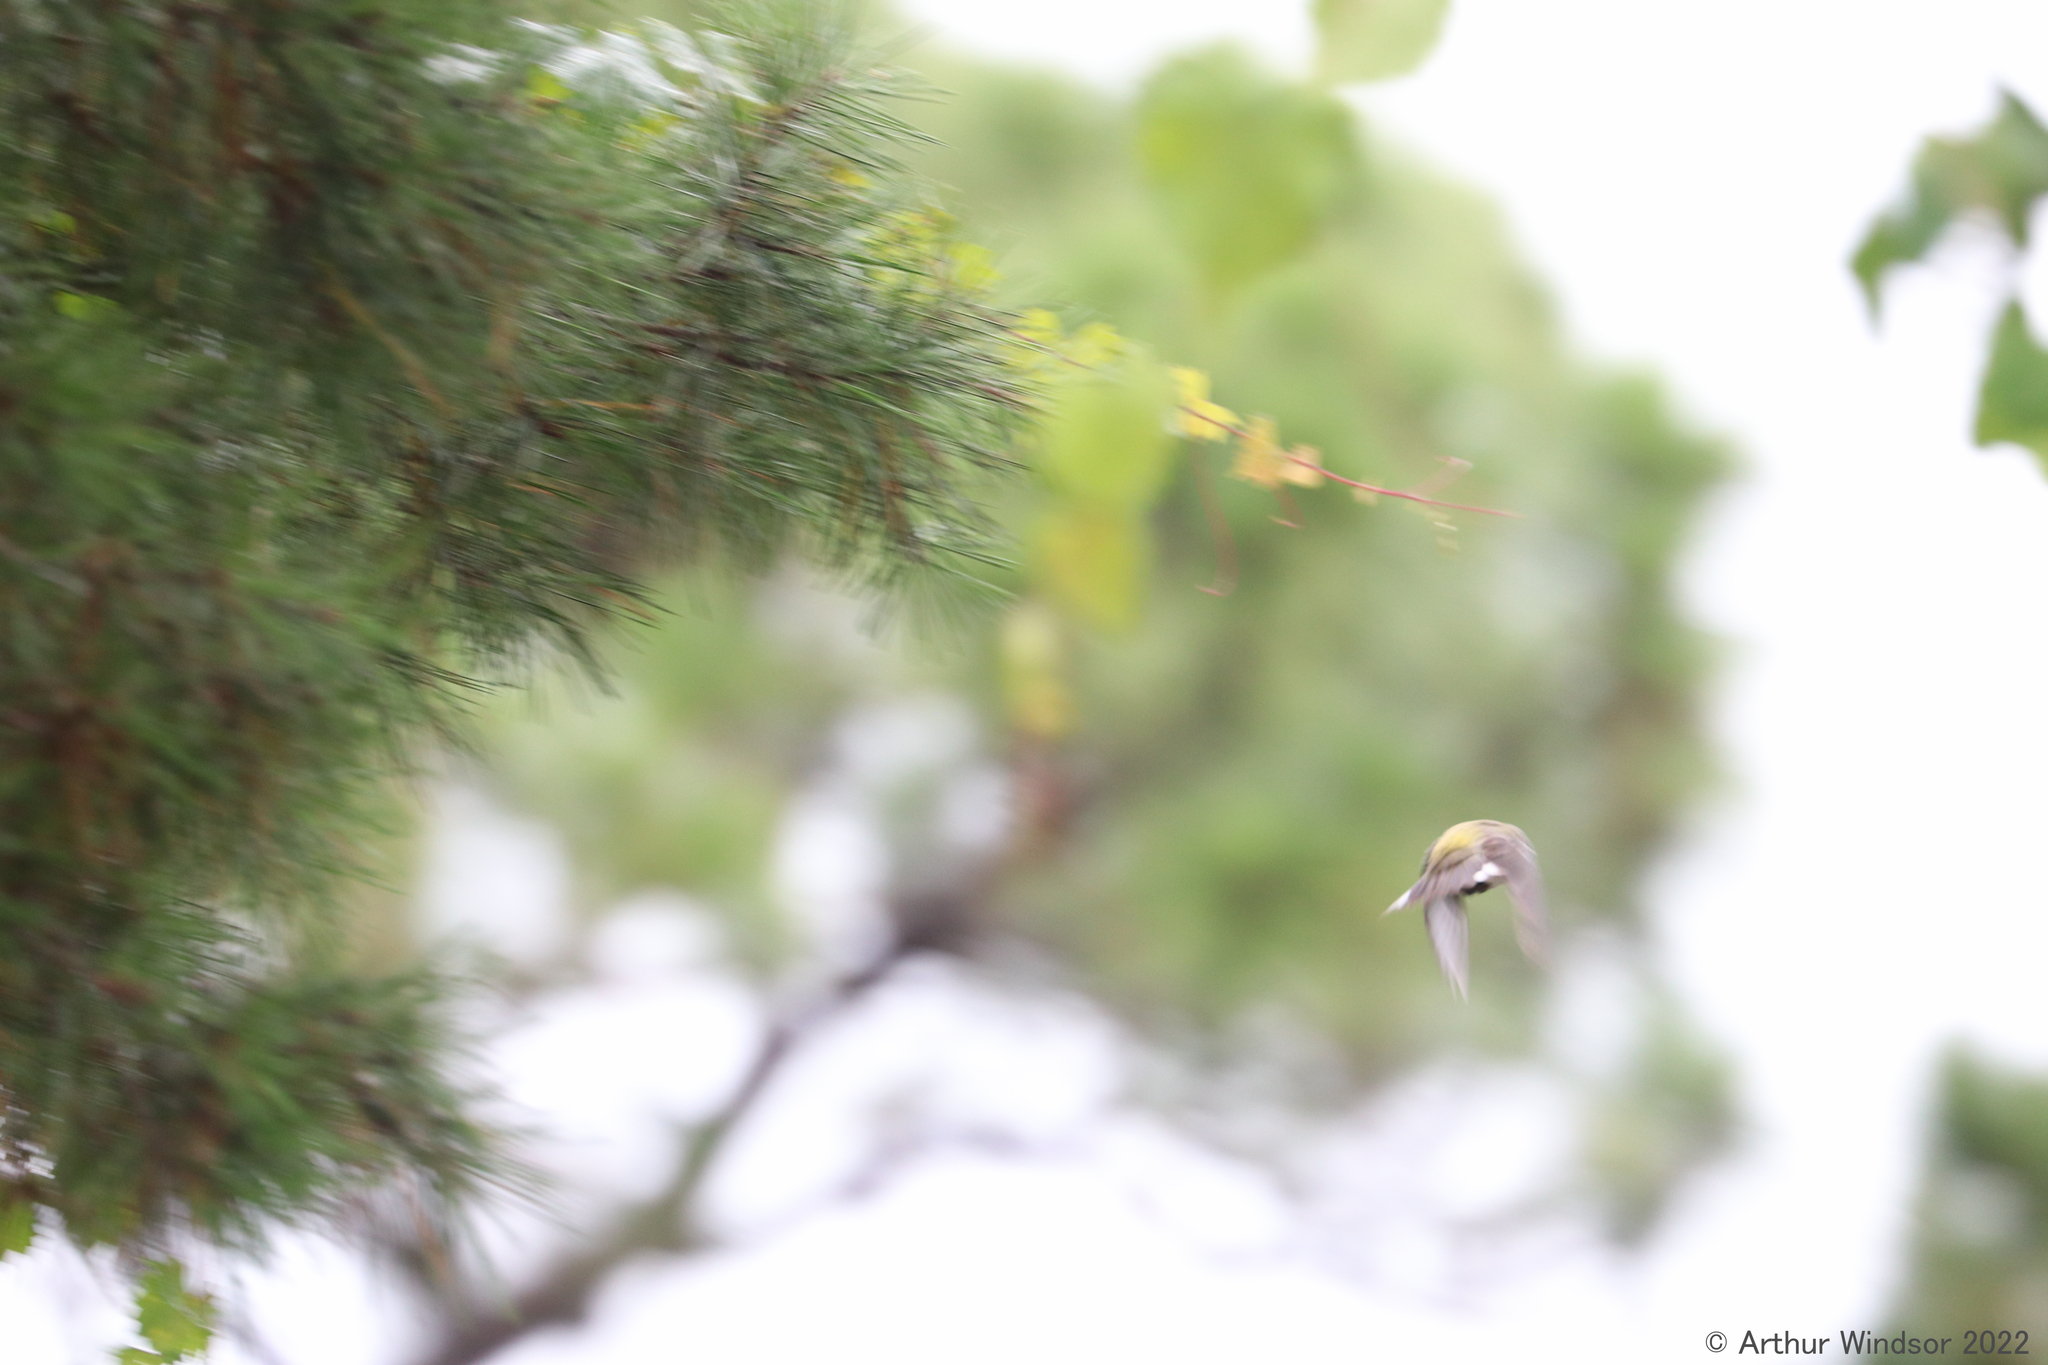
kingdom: Animalia
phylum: Chordata
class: Aves
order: Passeriformes
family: Parulidae
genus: Setophaga
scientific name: Setophaga pinus
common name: Pine warbler
